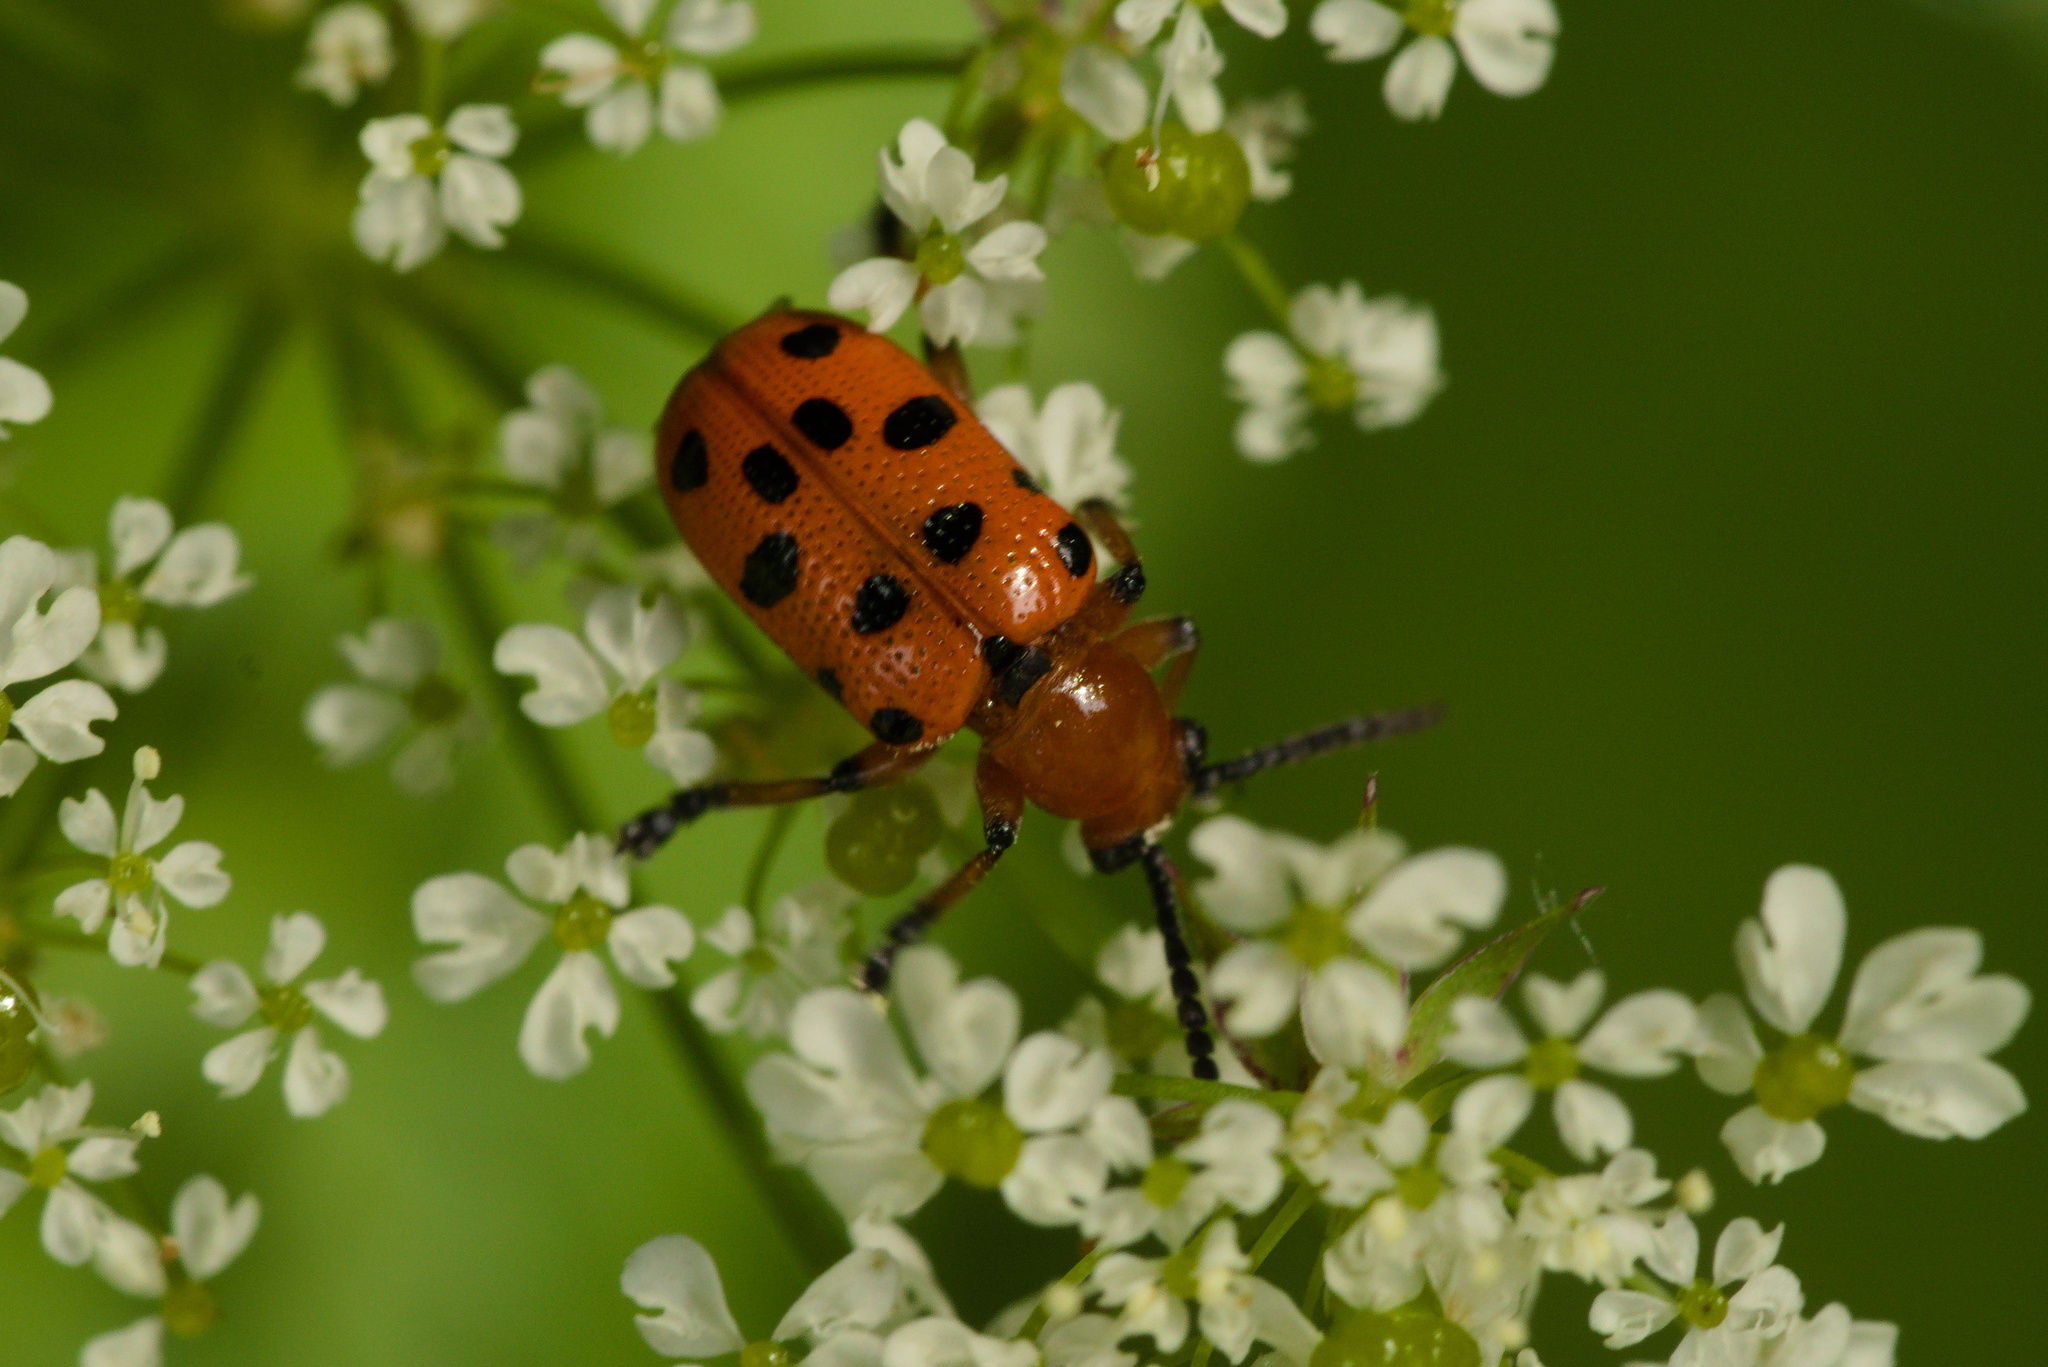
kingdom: Animalia
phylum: Arthropoda
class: Insecta
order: Coleoptera
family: Chrysomelidae
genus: Crioceris
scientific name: Crioceris duodecimpunctata
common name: Twelve-spotted asparagus beetle
